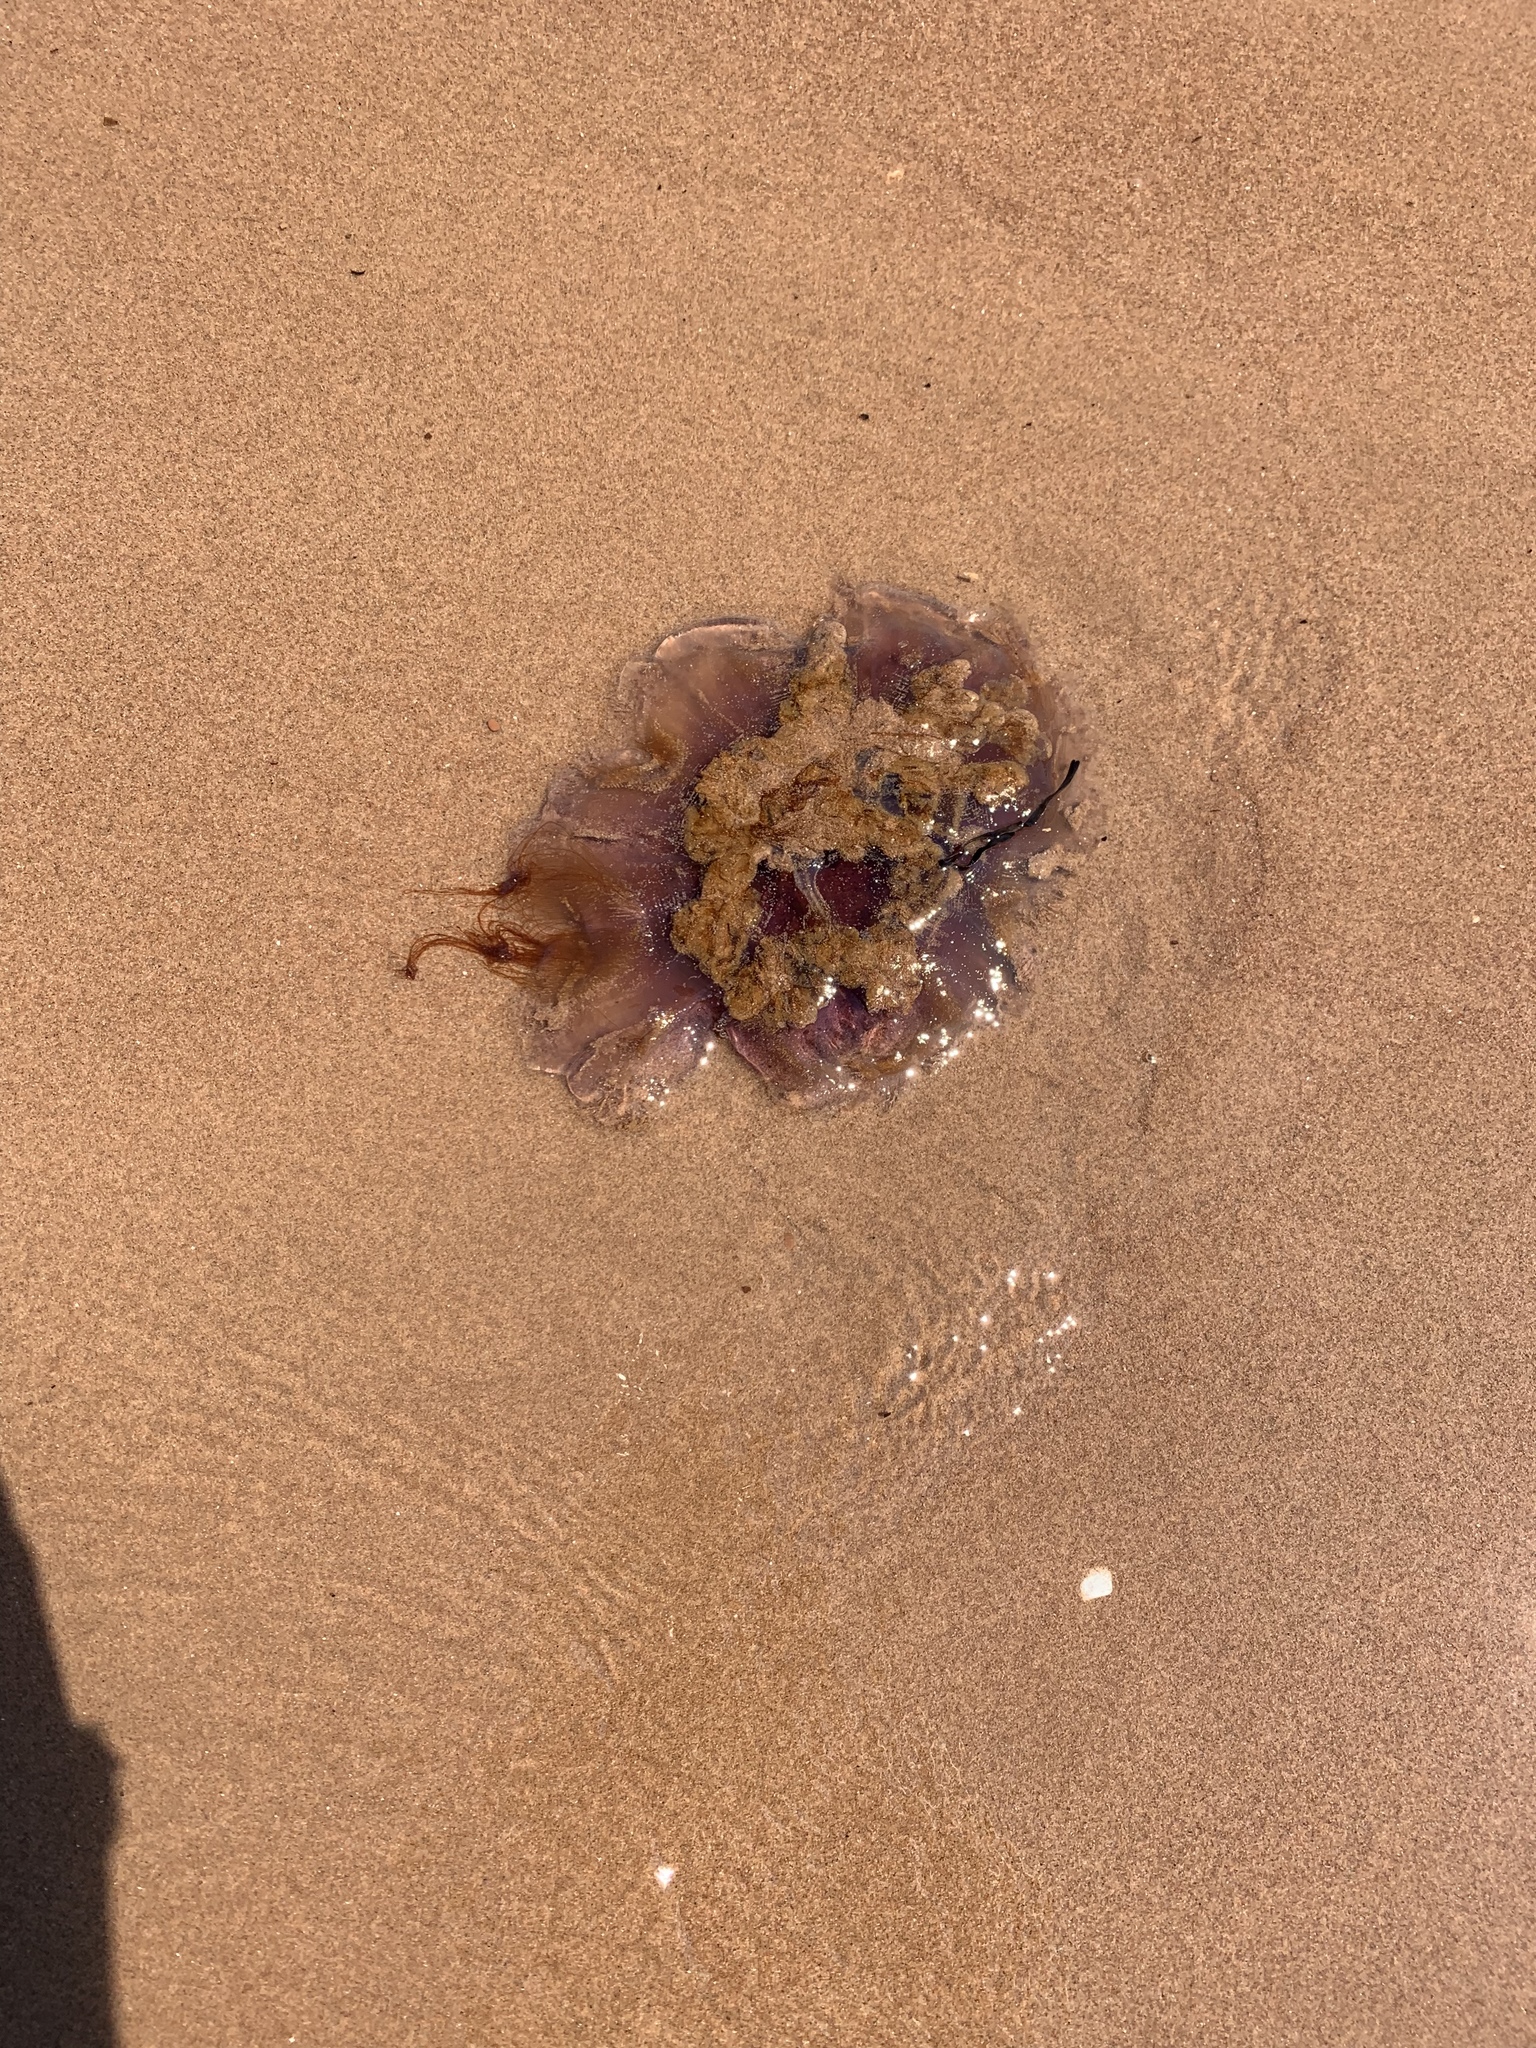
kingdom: Animalia
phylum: Cnidaria
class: Scyphozoa
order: Semaeostomeae
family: Cyaneidae
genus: Cyanea
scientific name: Cyanea capillata
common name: Lion's mane jellyfish
